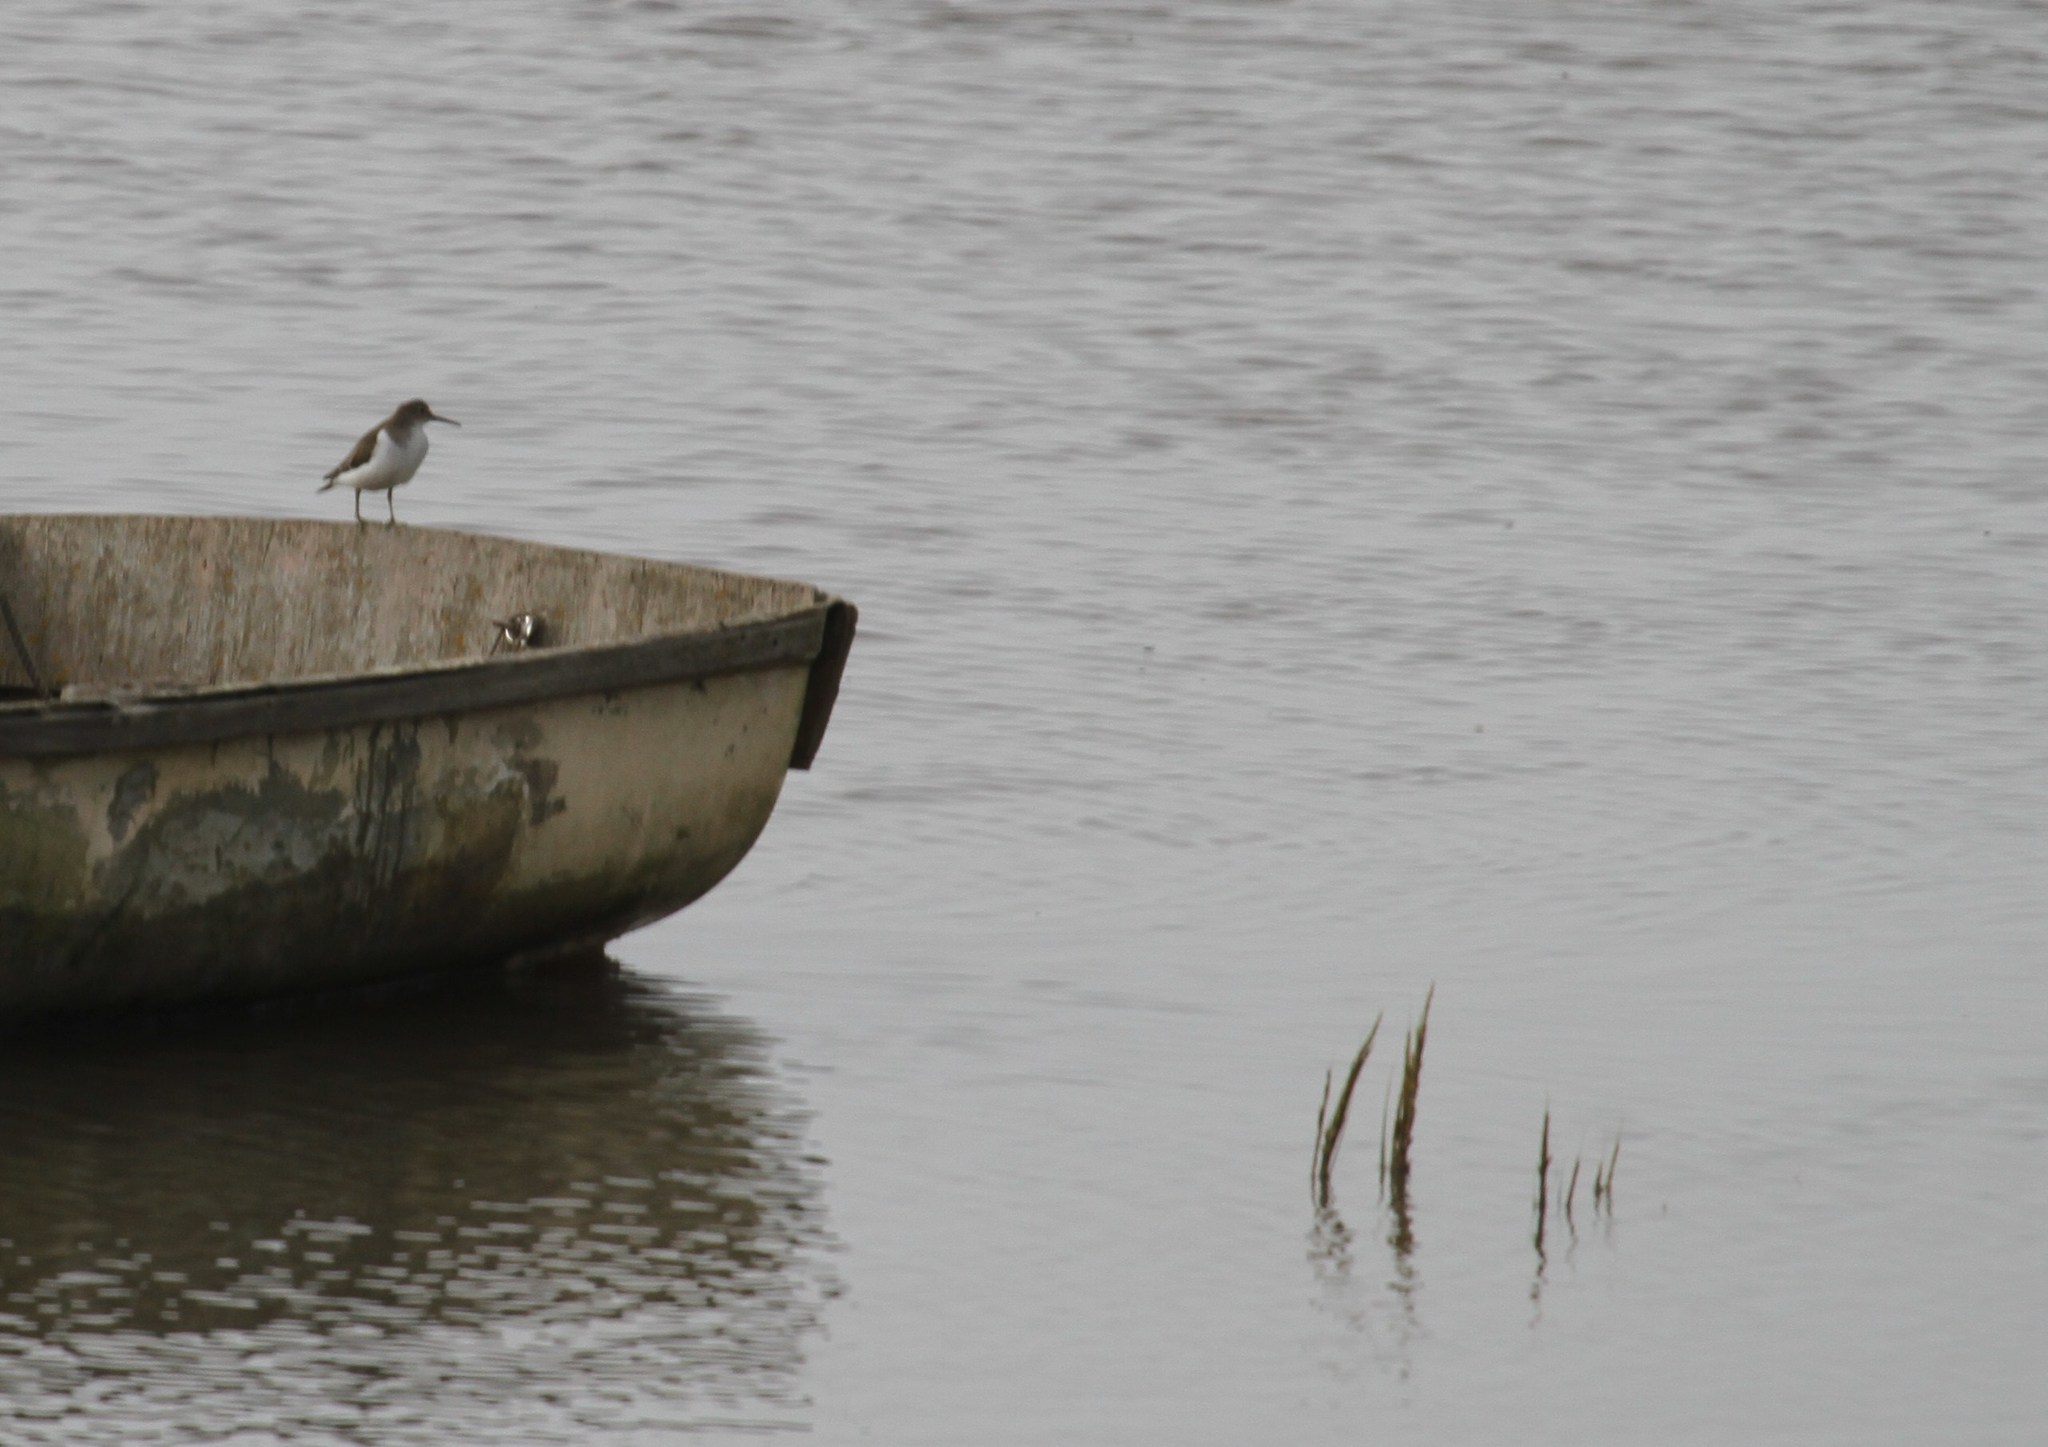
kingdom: Animalia
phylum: Chordata
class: Aves
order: Charadriiformes
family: Scolopacidae
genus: Actitis
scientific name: Actitis hypoleucos
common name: Common sandpiper
